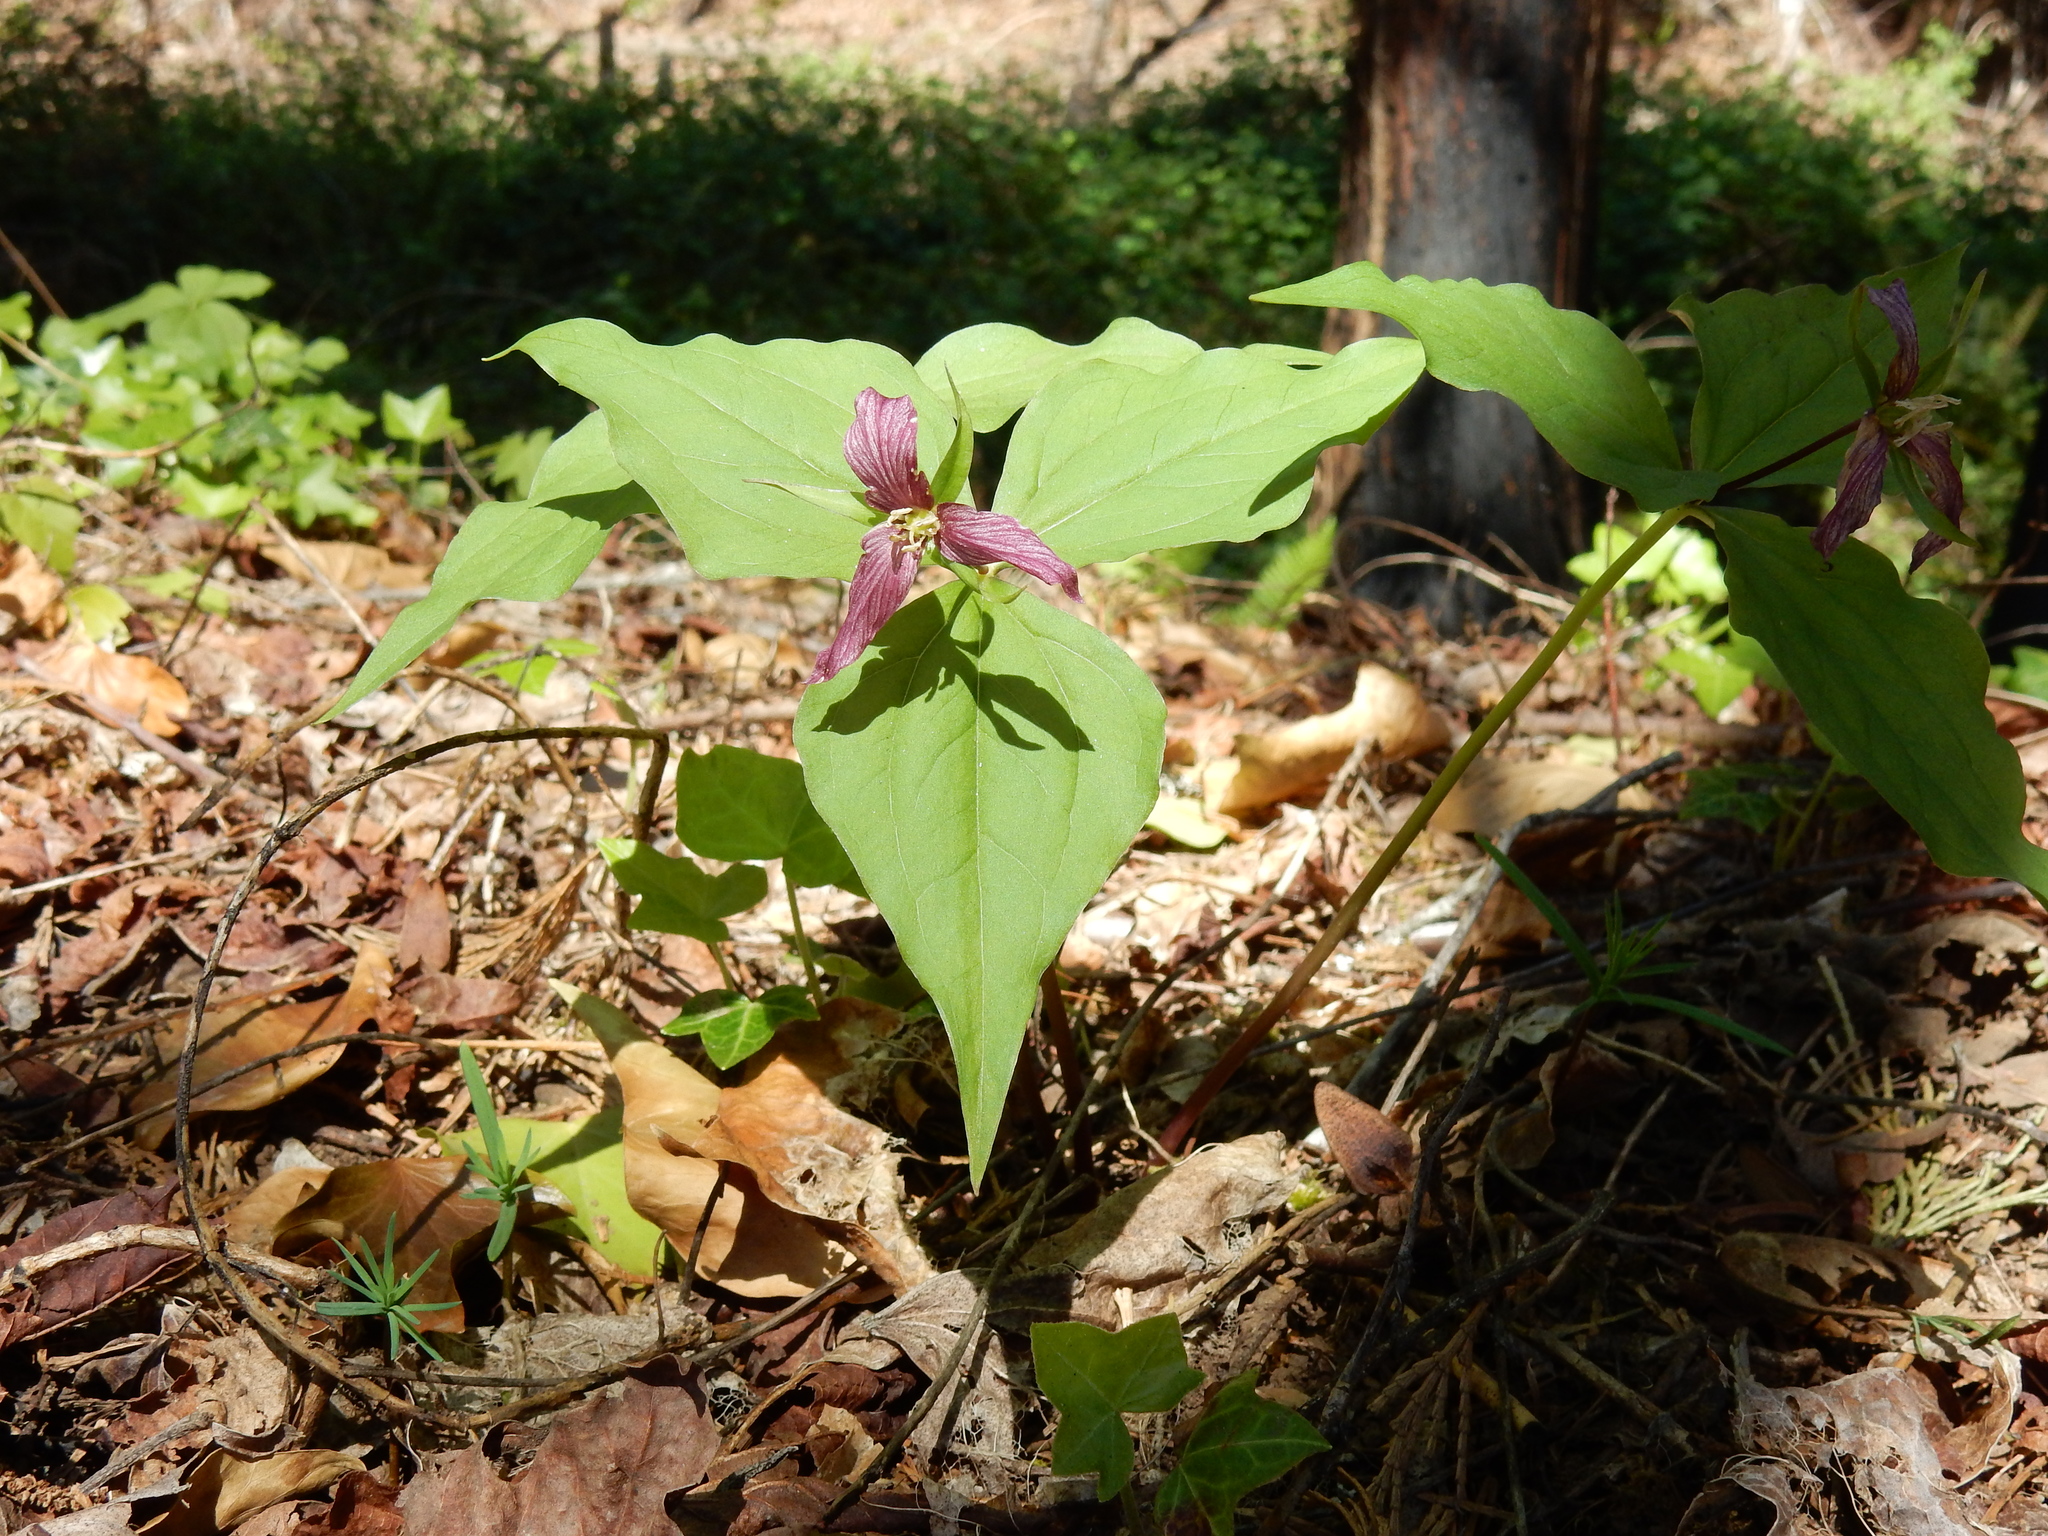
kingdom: Plantae
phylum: Tracheophyta
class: Liliopsida
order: Liliales
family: Melanthiaceae
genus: Trillium
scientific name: Trillium ovatum
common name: Pacific trillium
